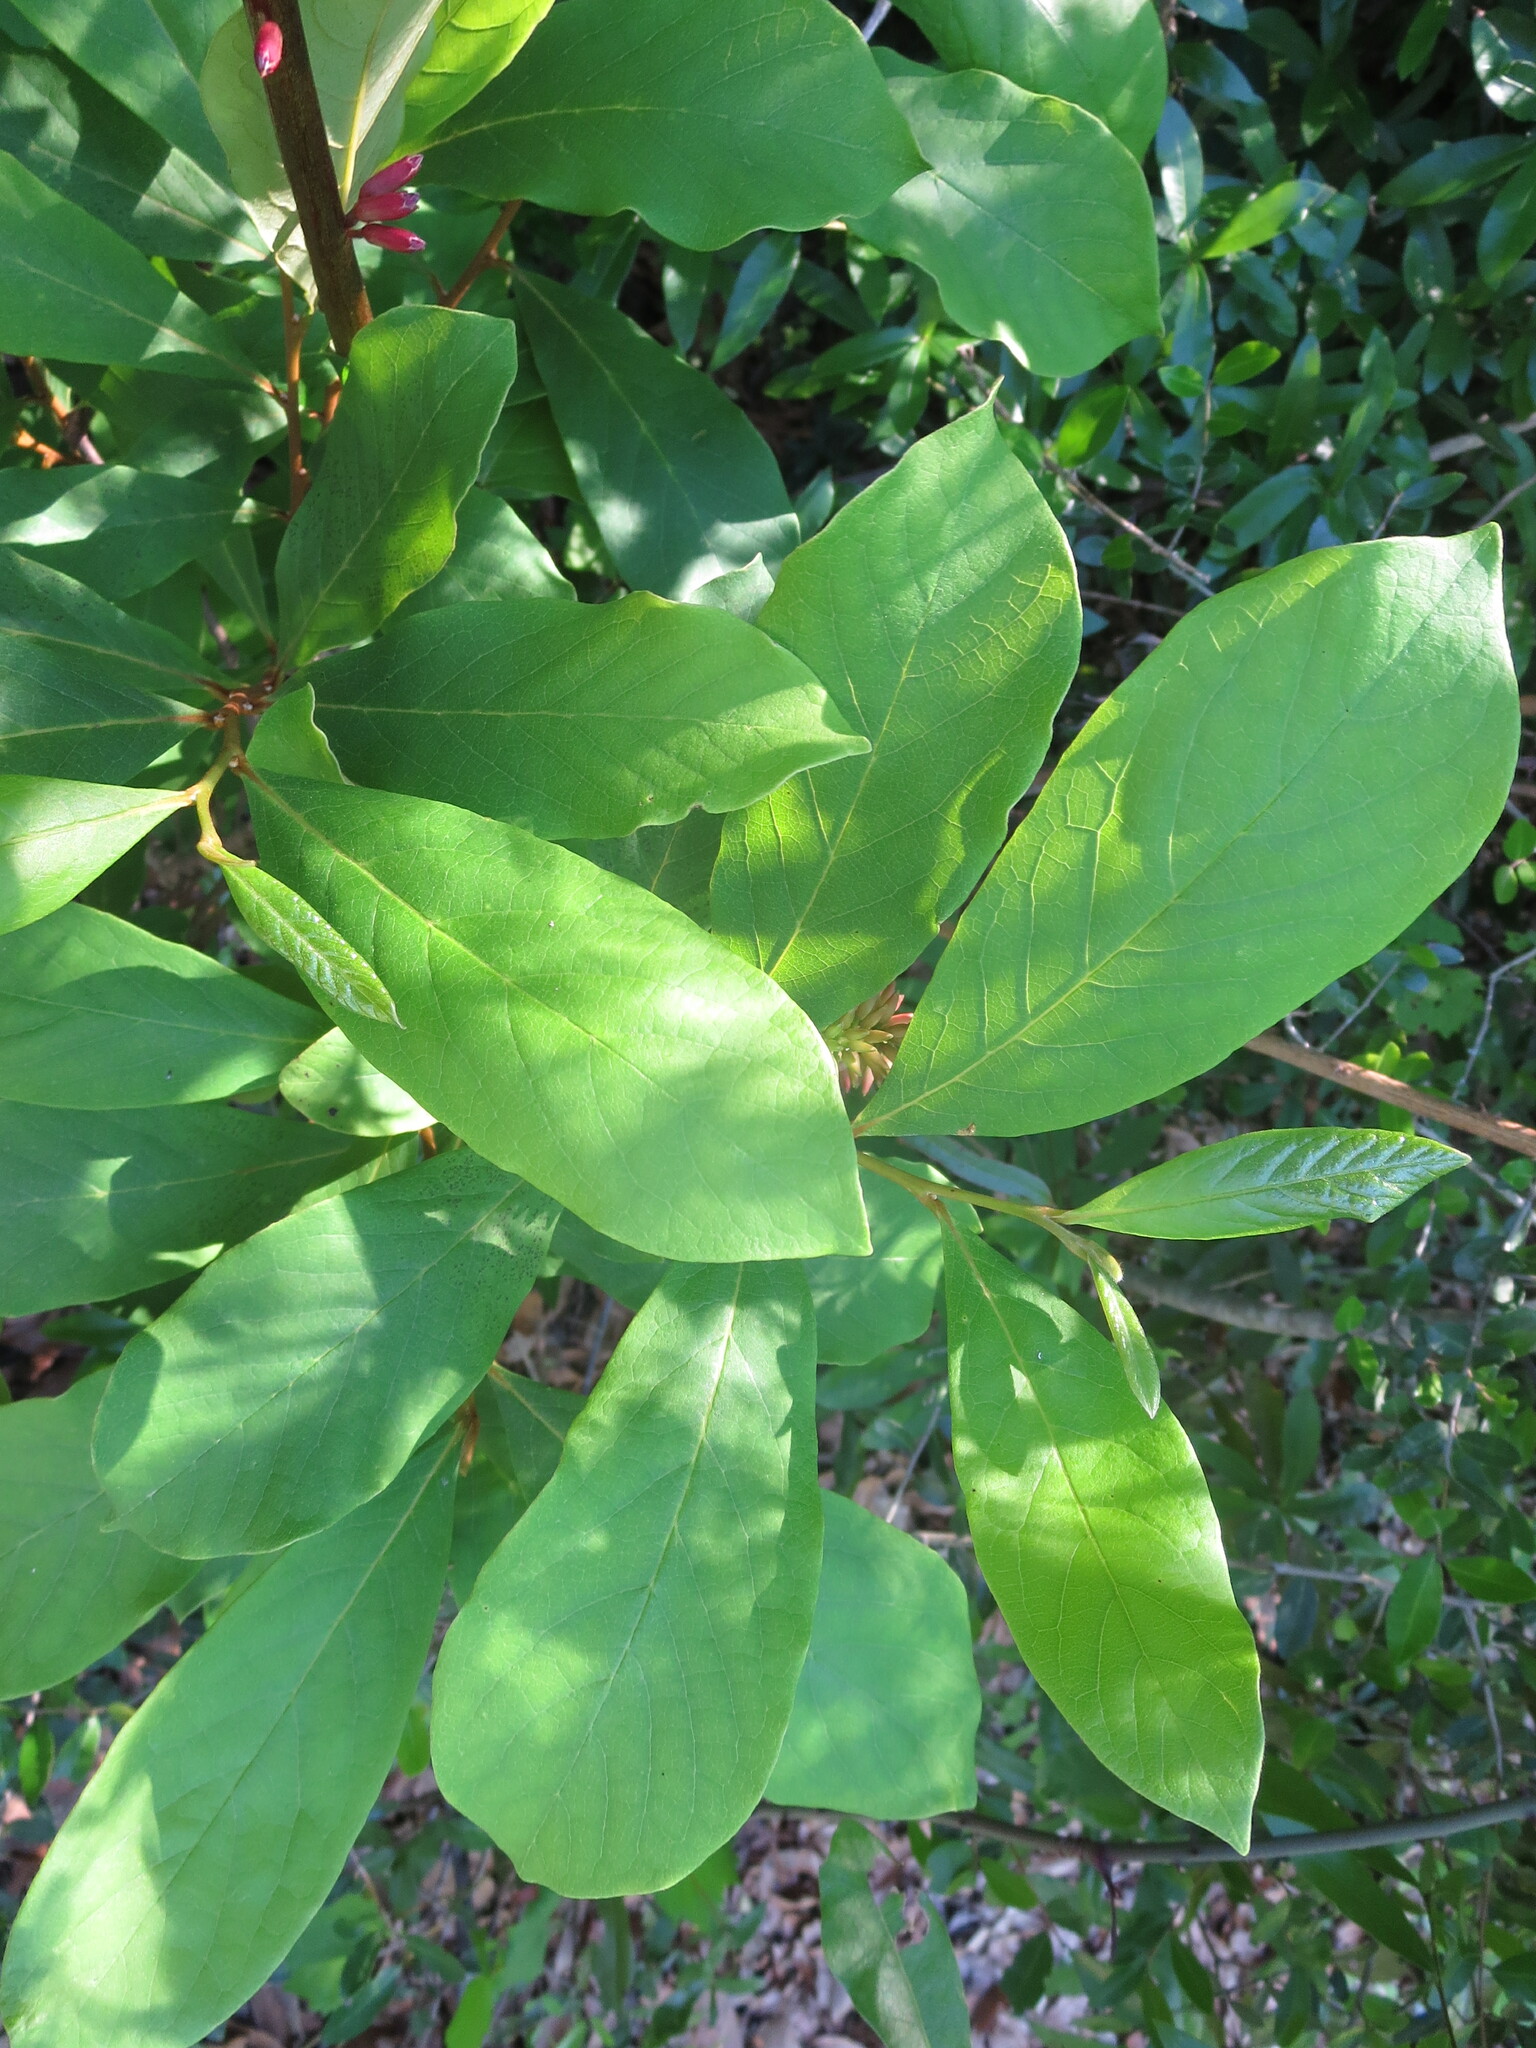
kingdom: Plantae
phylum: Tracheophyta
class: Magnoliopsida
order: Magnoliales
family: Annonaceae
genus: Asimina
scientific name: Asimina parviflora
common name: Dwarf pawpaw
